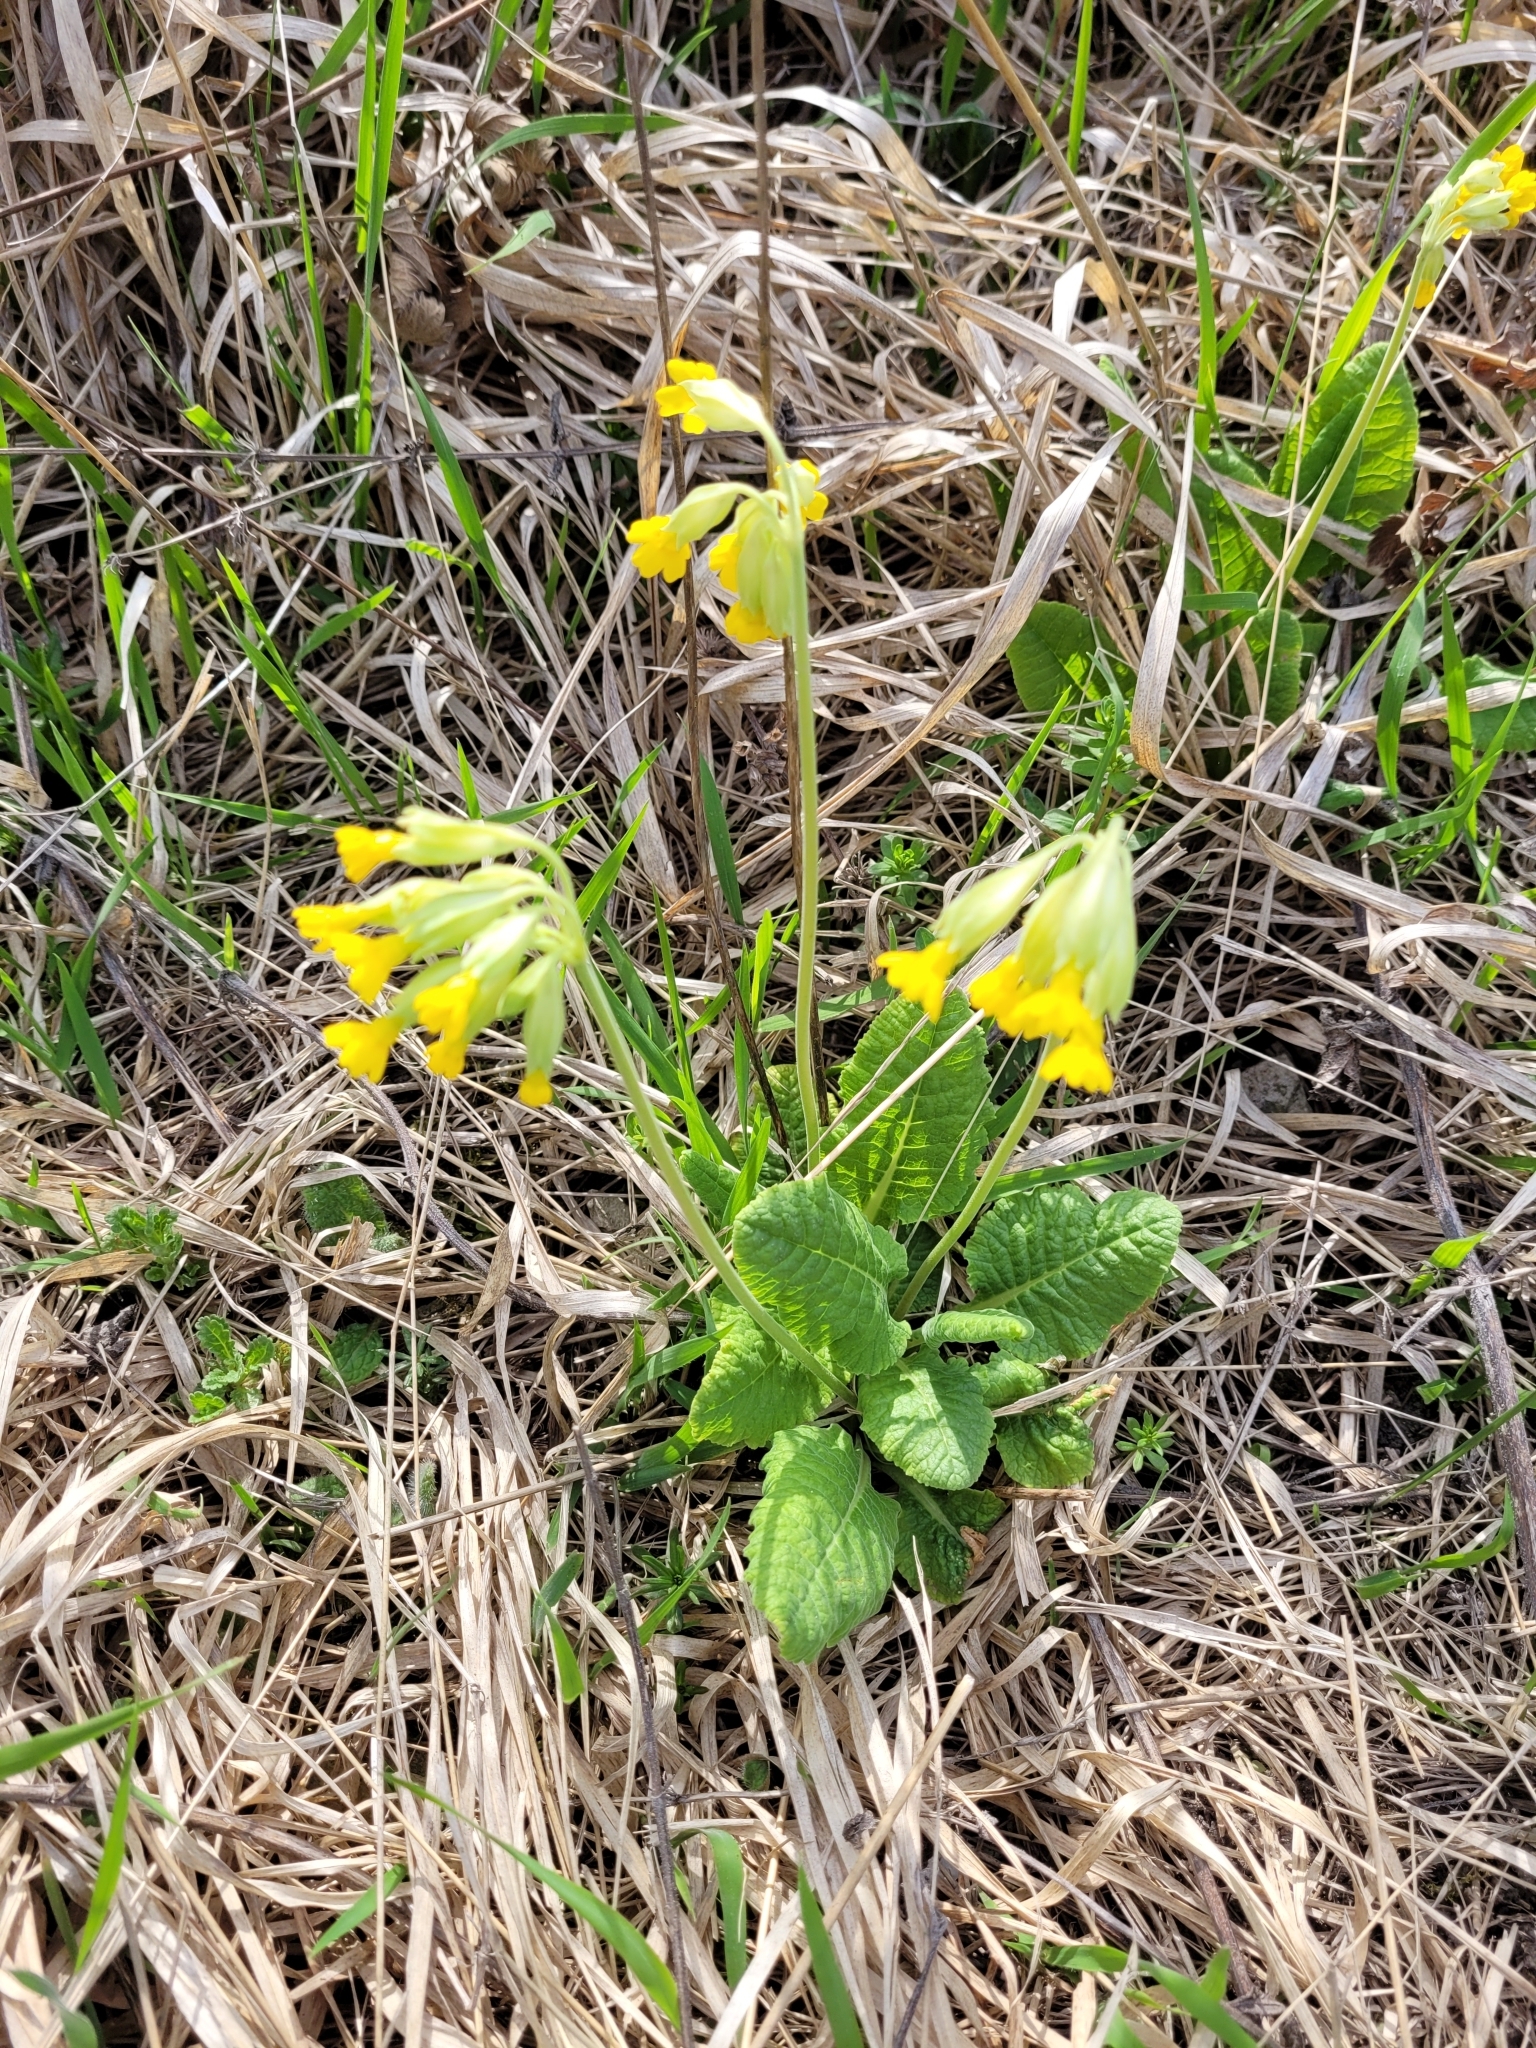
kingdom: Plantae
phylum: Tracheophyta
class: Magnoliopsida
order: Ericales
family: Primulaceae
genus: Primula
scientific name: Primula veris
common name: Cowslip
